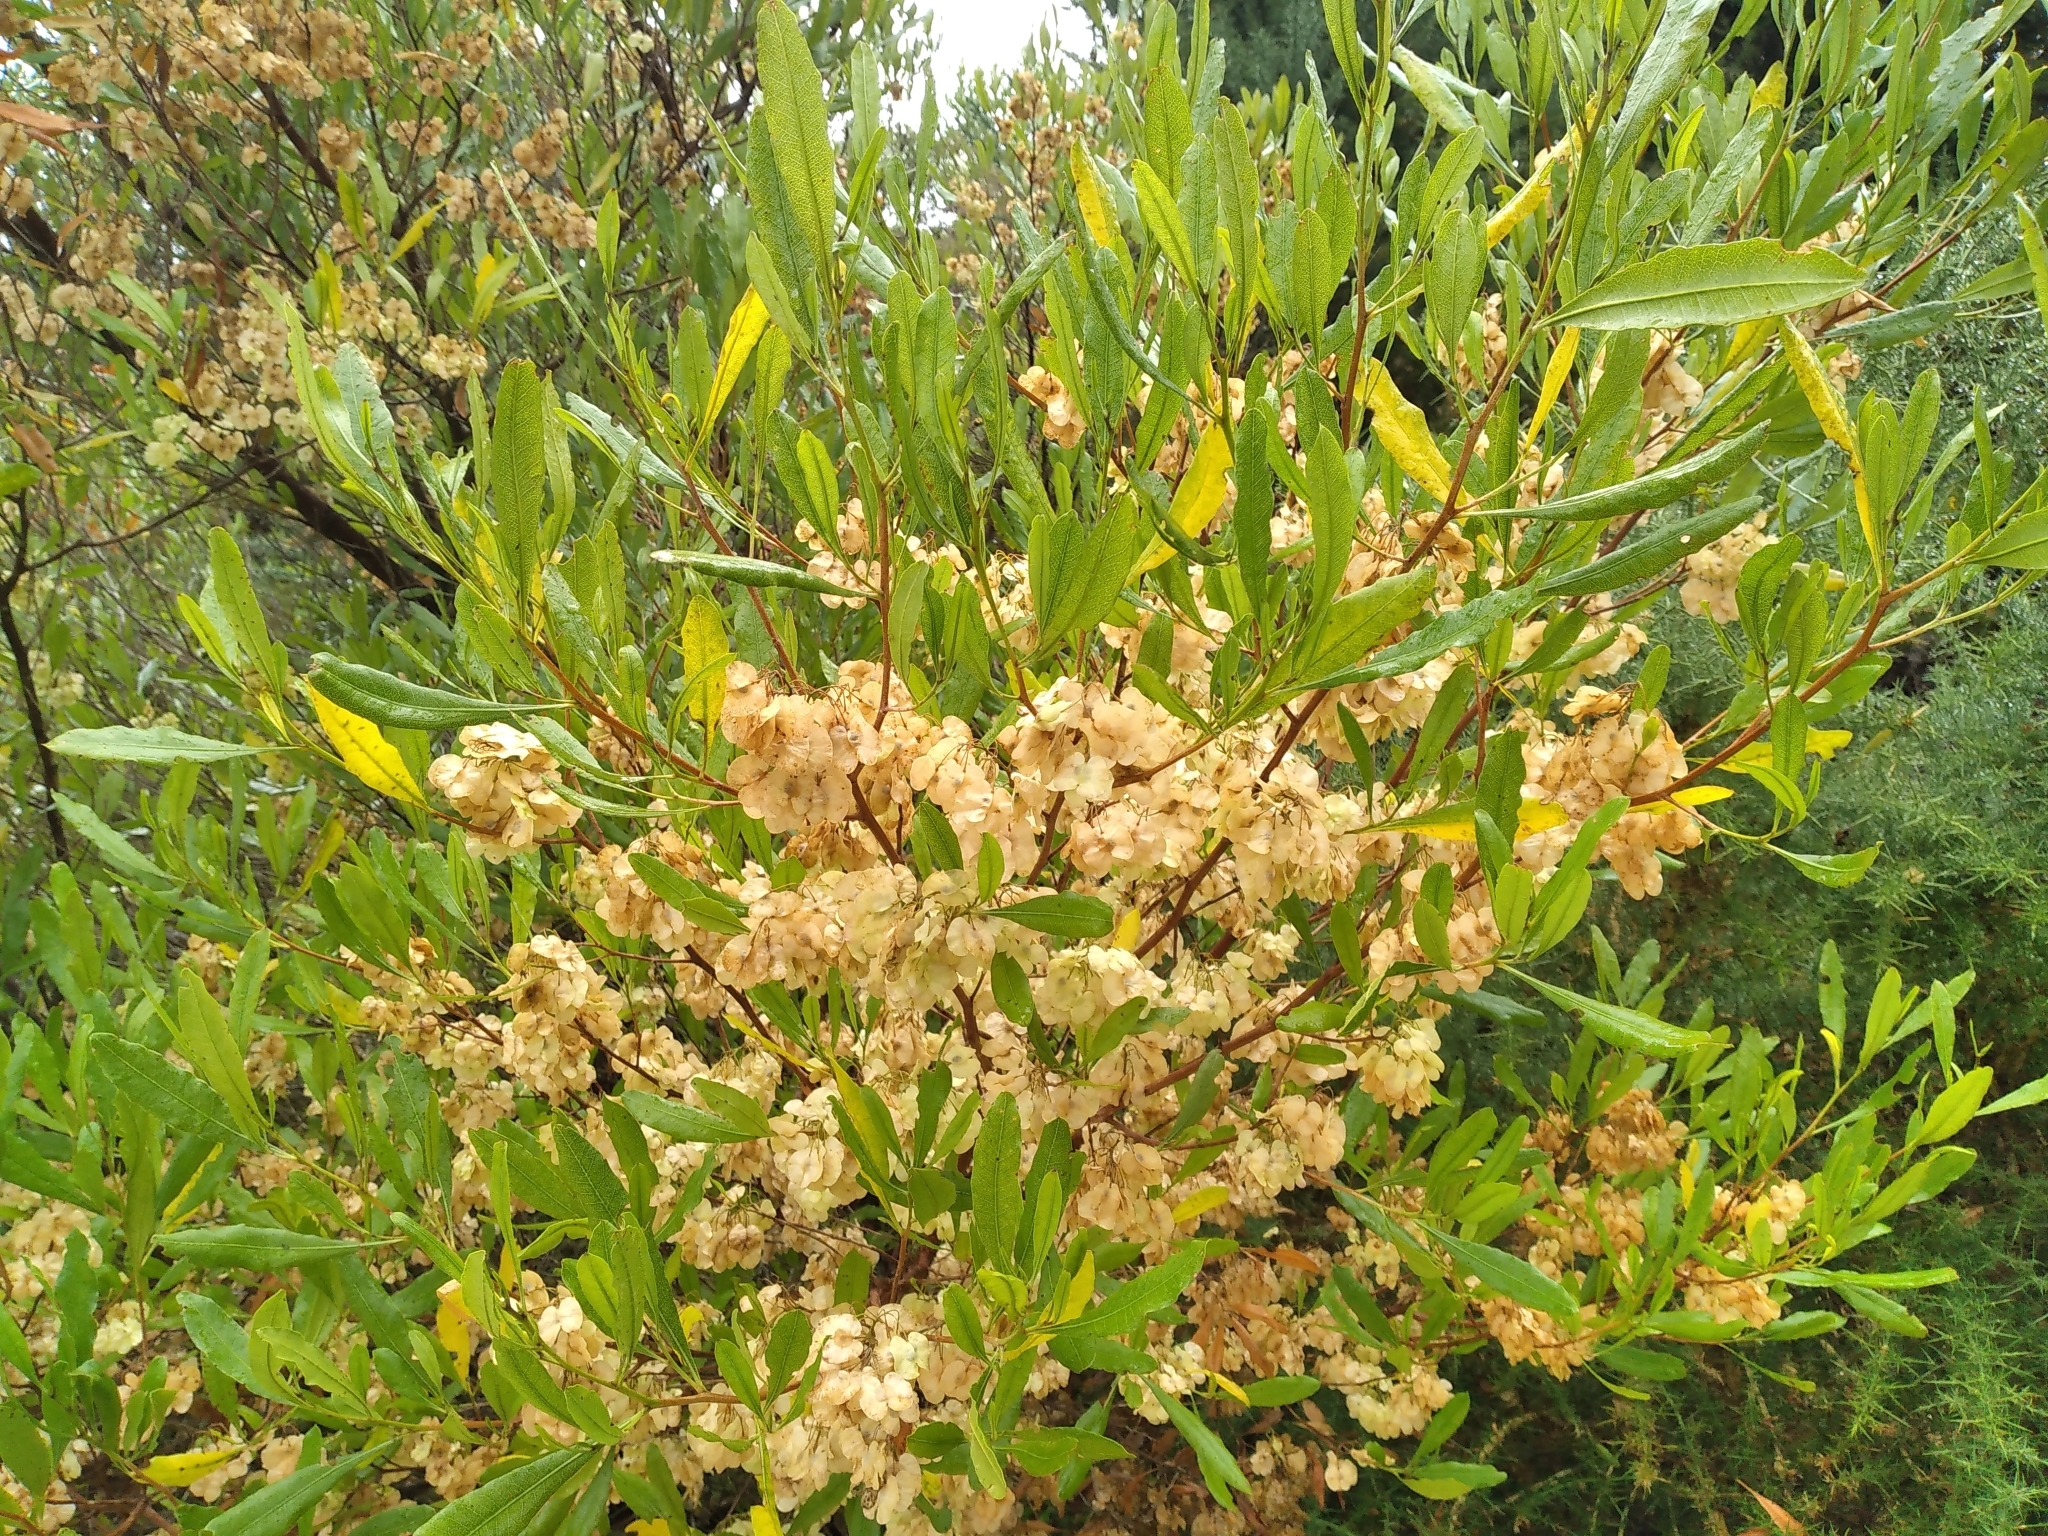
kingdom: Plantae
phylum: Tracheophyta
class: Magnoliopsida
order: Sapindales
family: Sapindaceae
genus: Dodonaea
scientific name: Dodonaea viscosa
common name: Hopbush
